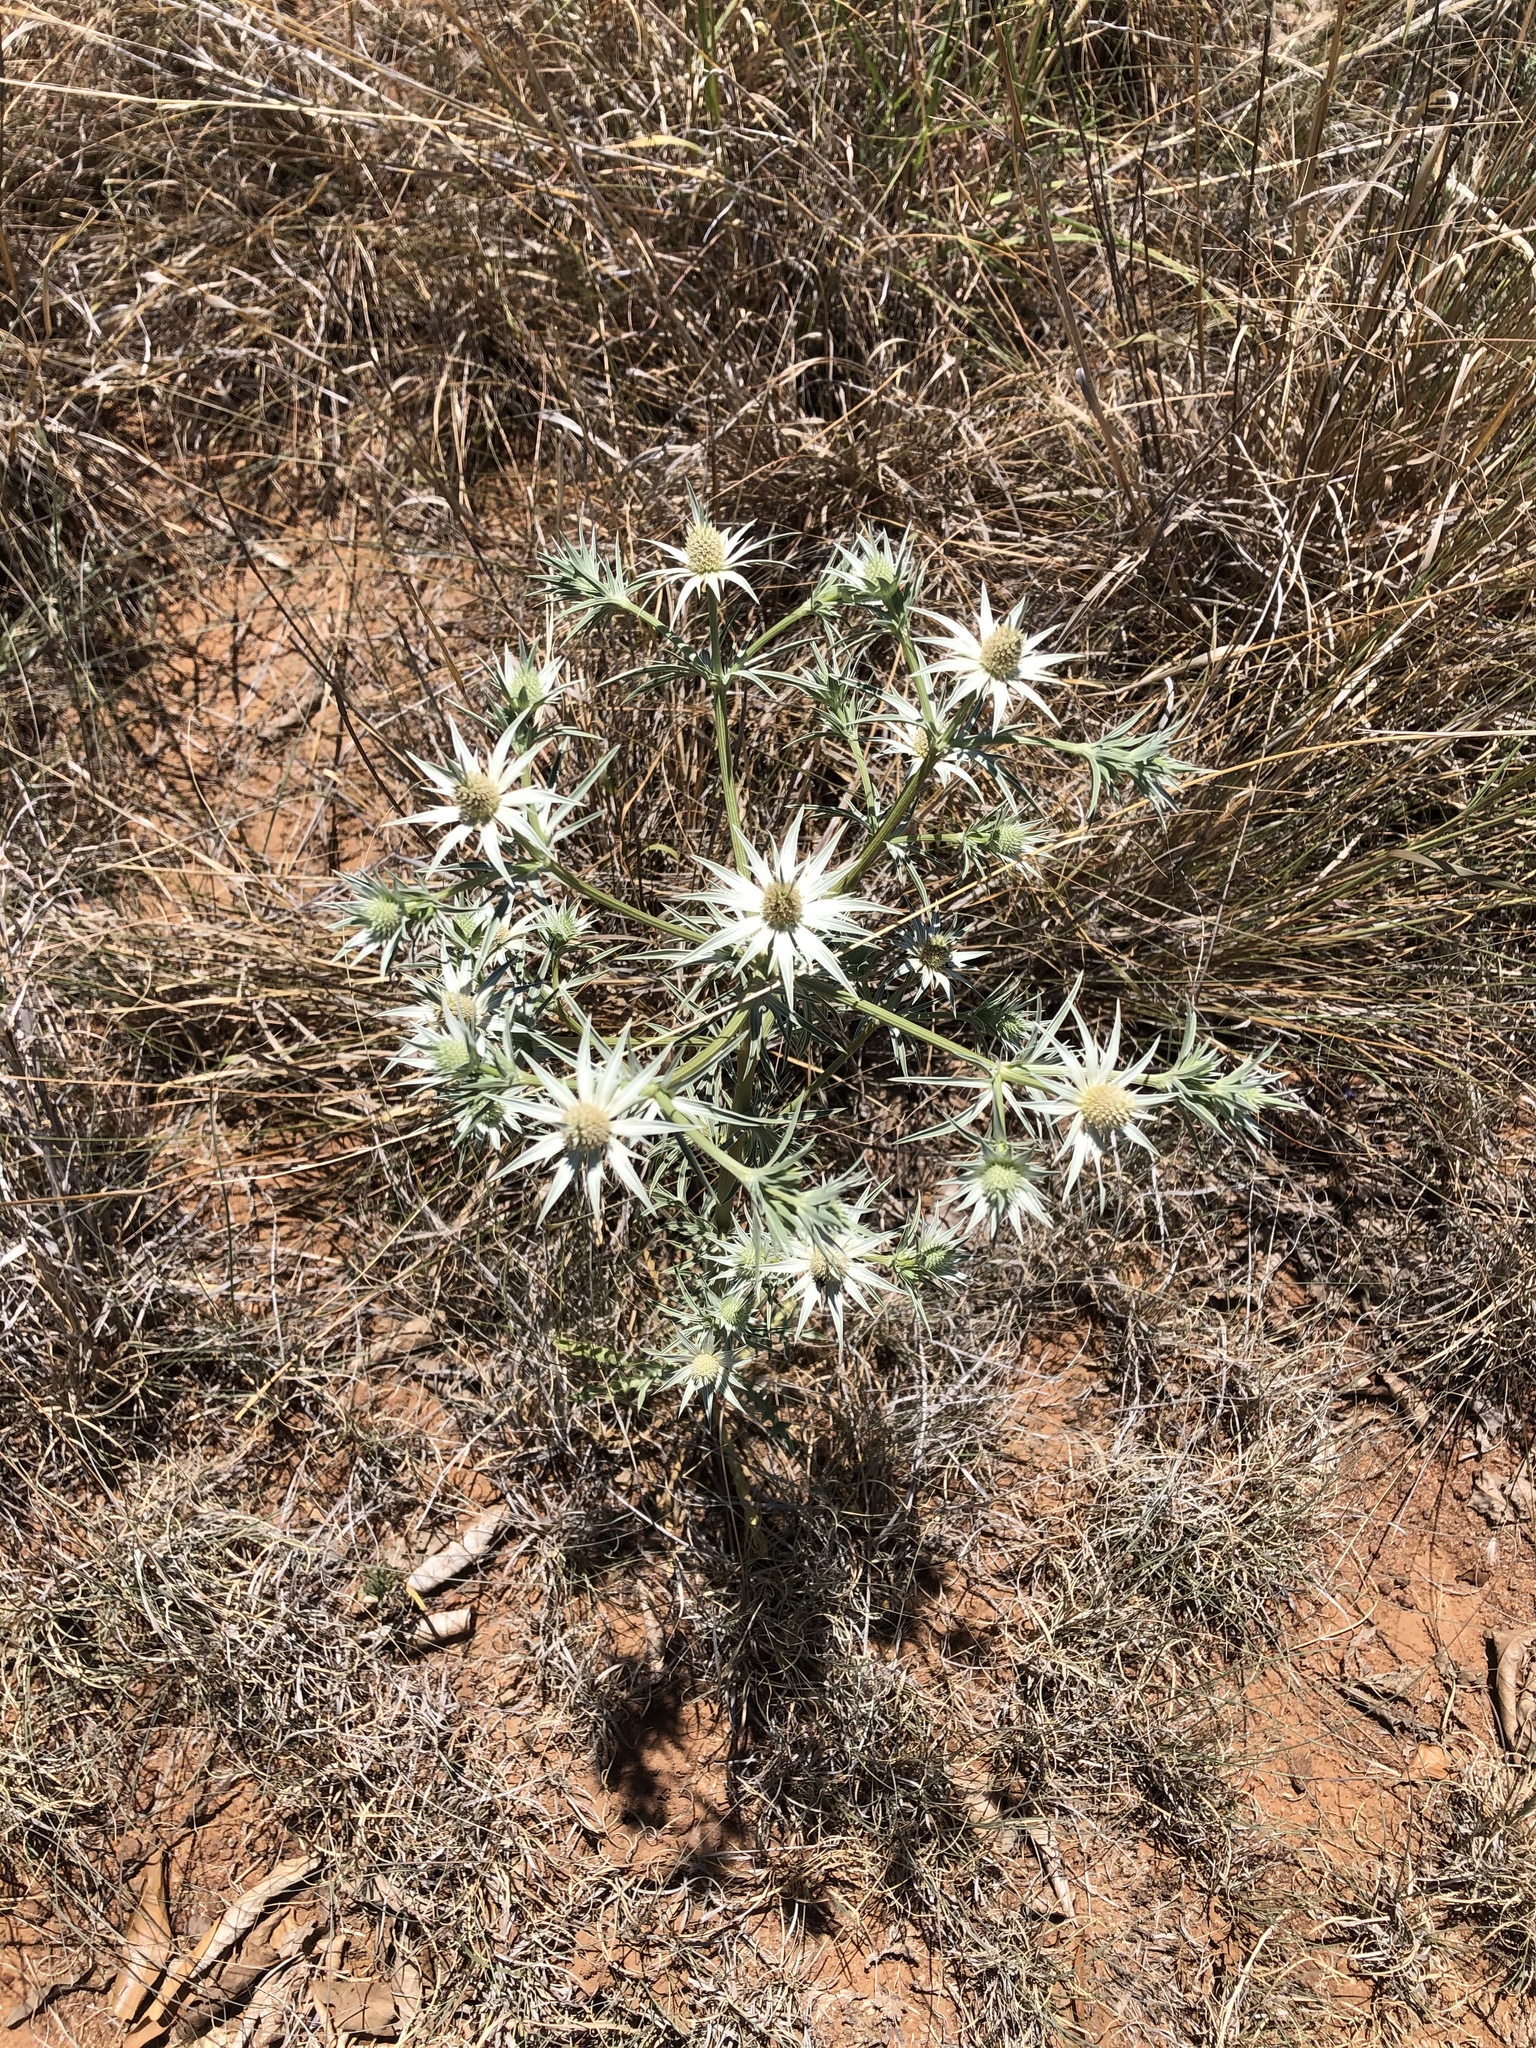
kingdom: Plantae
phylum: Tracheophyta
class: Magnoliopsida
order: Apiales
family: Apiaceae
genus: Eryngium
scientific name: Eryngium heterophyllum
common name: Mexican thistle
